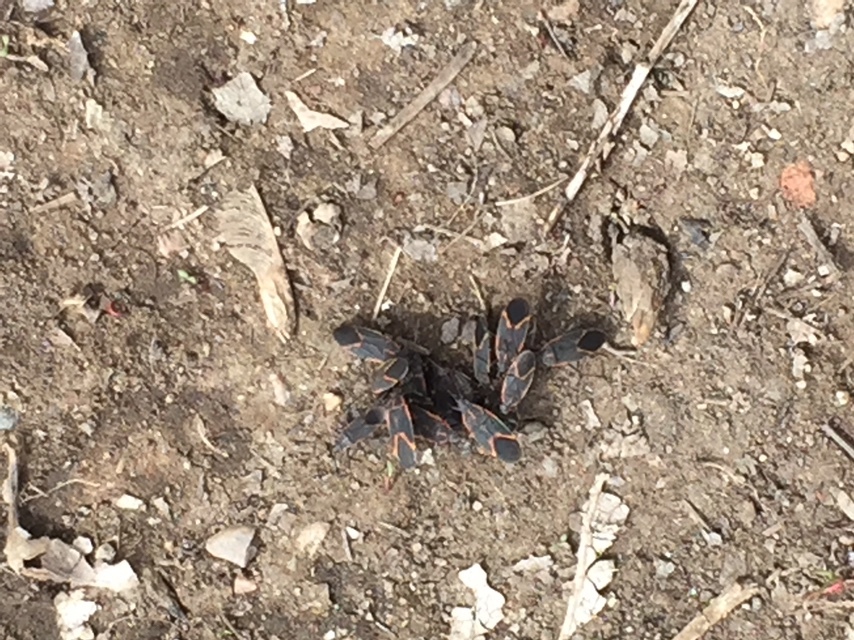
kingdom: Animalia
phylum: Arthropoda
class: Insecta
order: Hemiptera
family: Rhopalidae
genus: Boisea
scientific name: Boisea trivittata
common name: Boxelder bug
